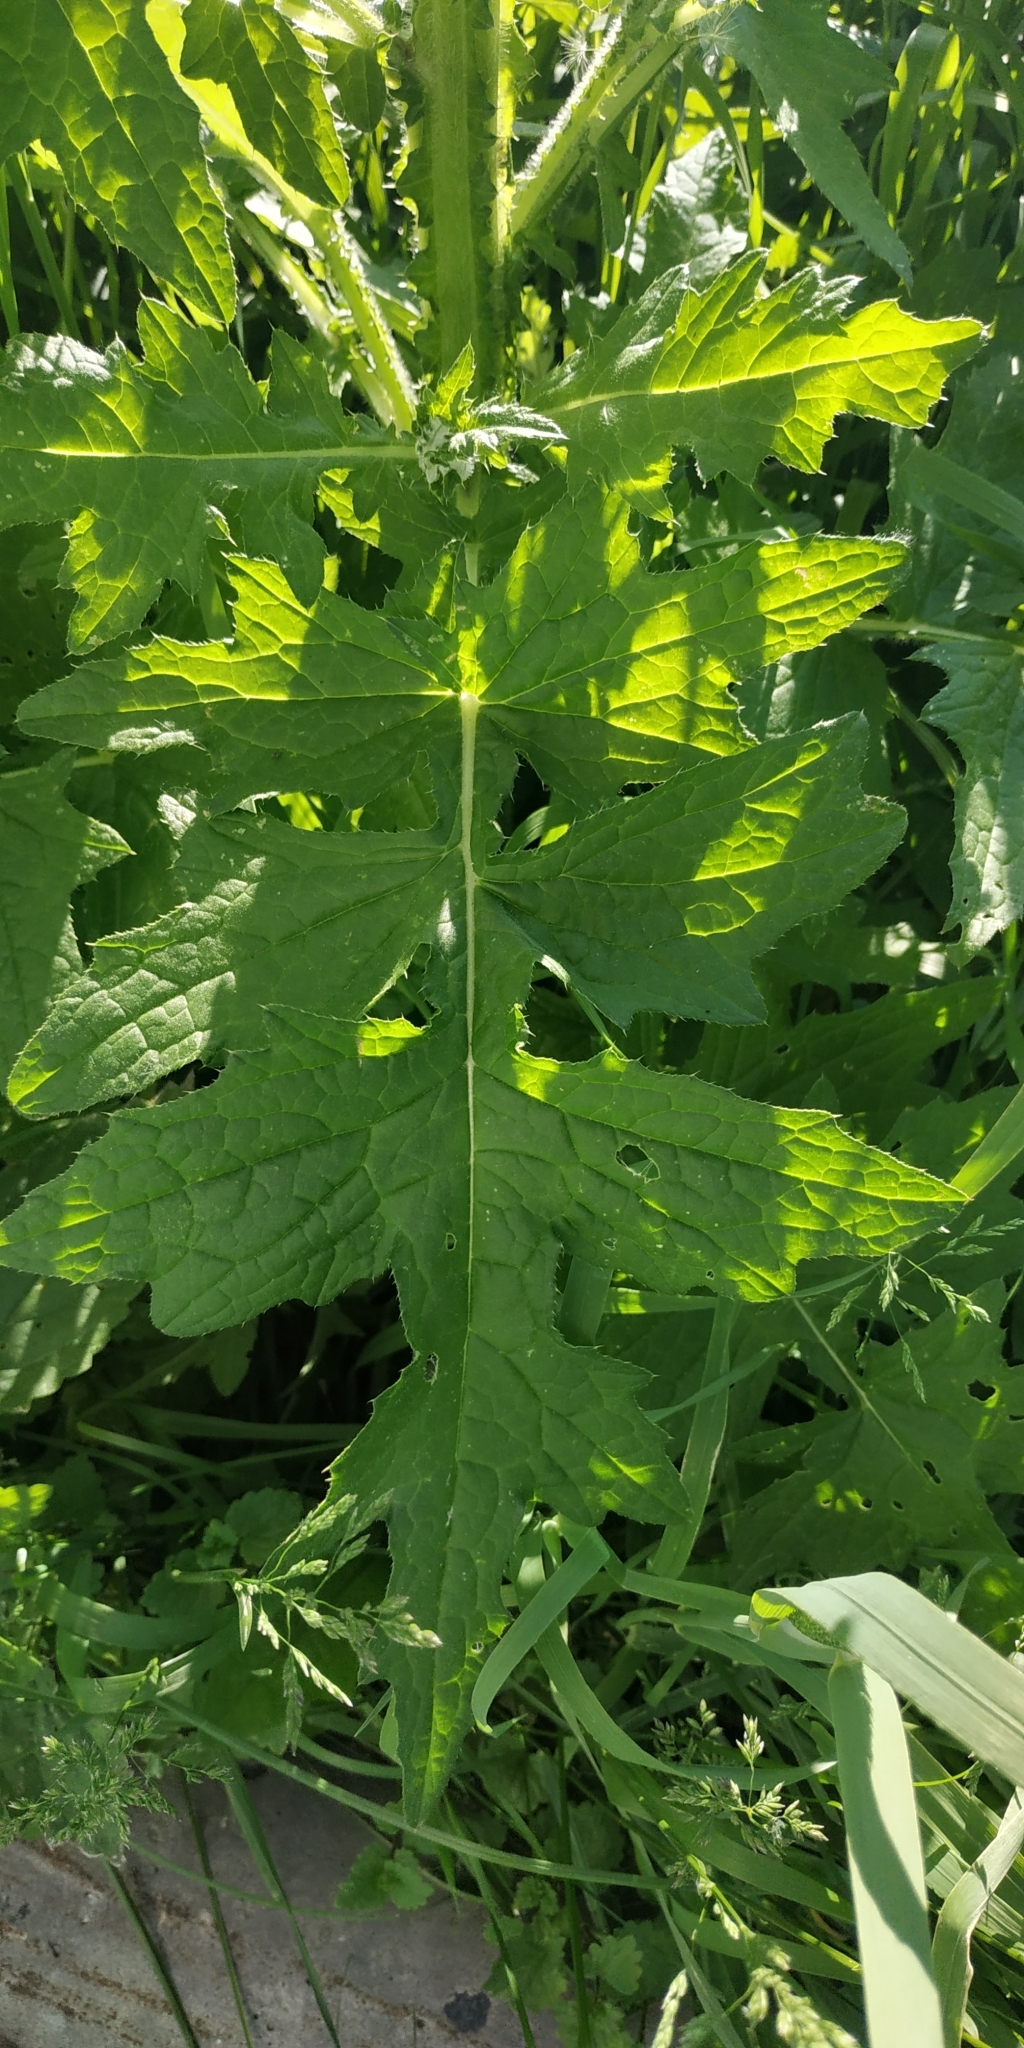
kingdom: Plantae
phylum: Tracheophyta
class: Magnoliopsida
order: Asterales
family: Asteraceae
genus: Carduus
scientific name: Carduus crispus
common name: Welted thistle
